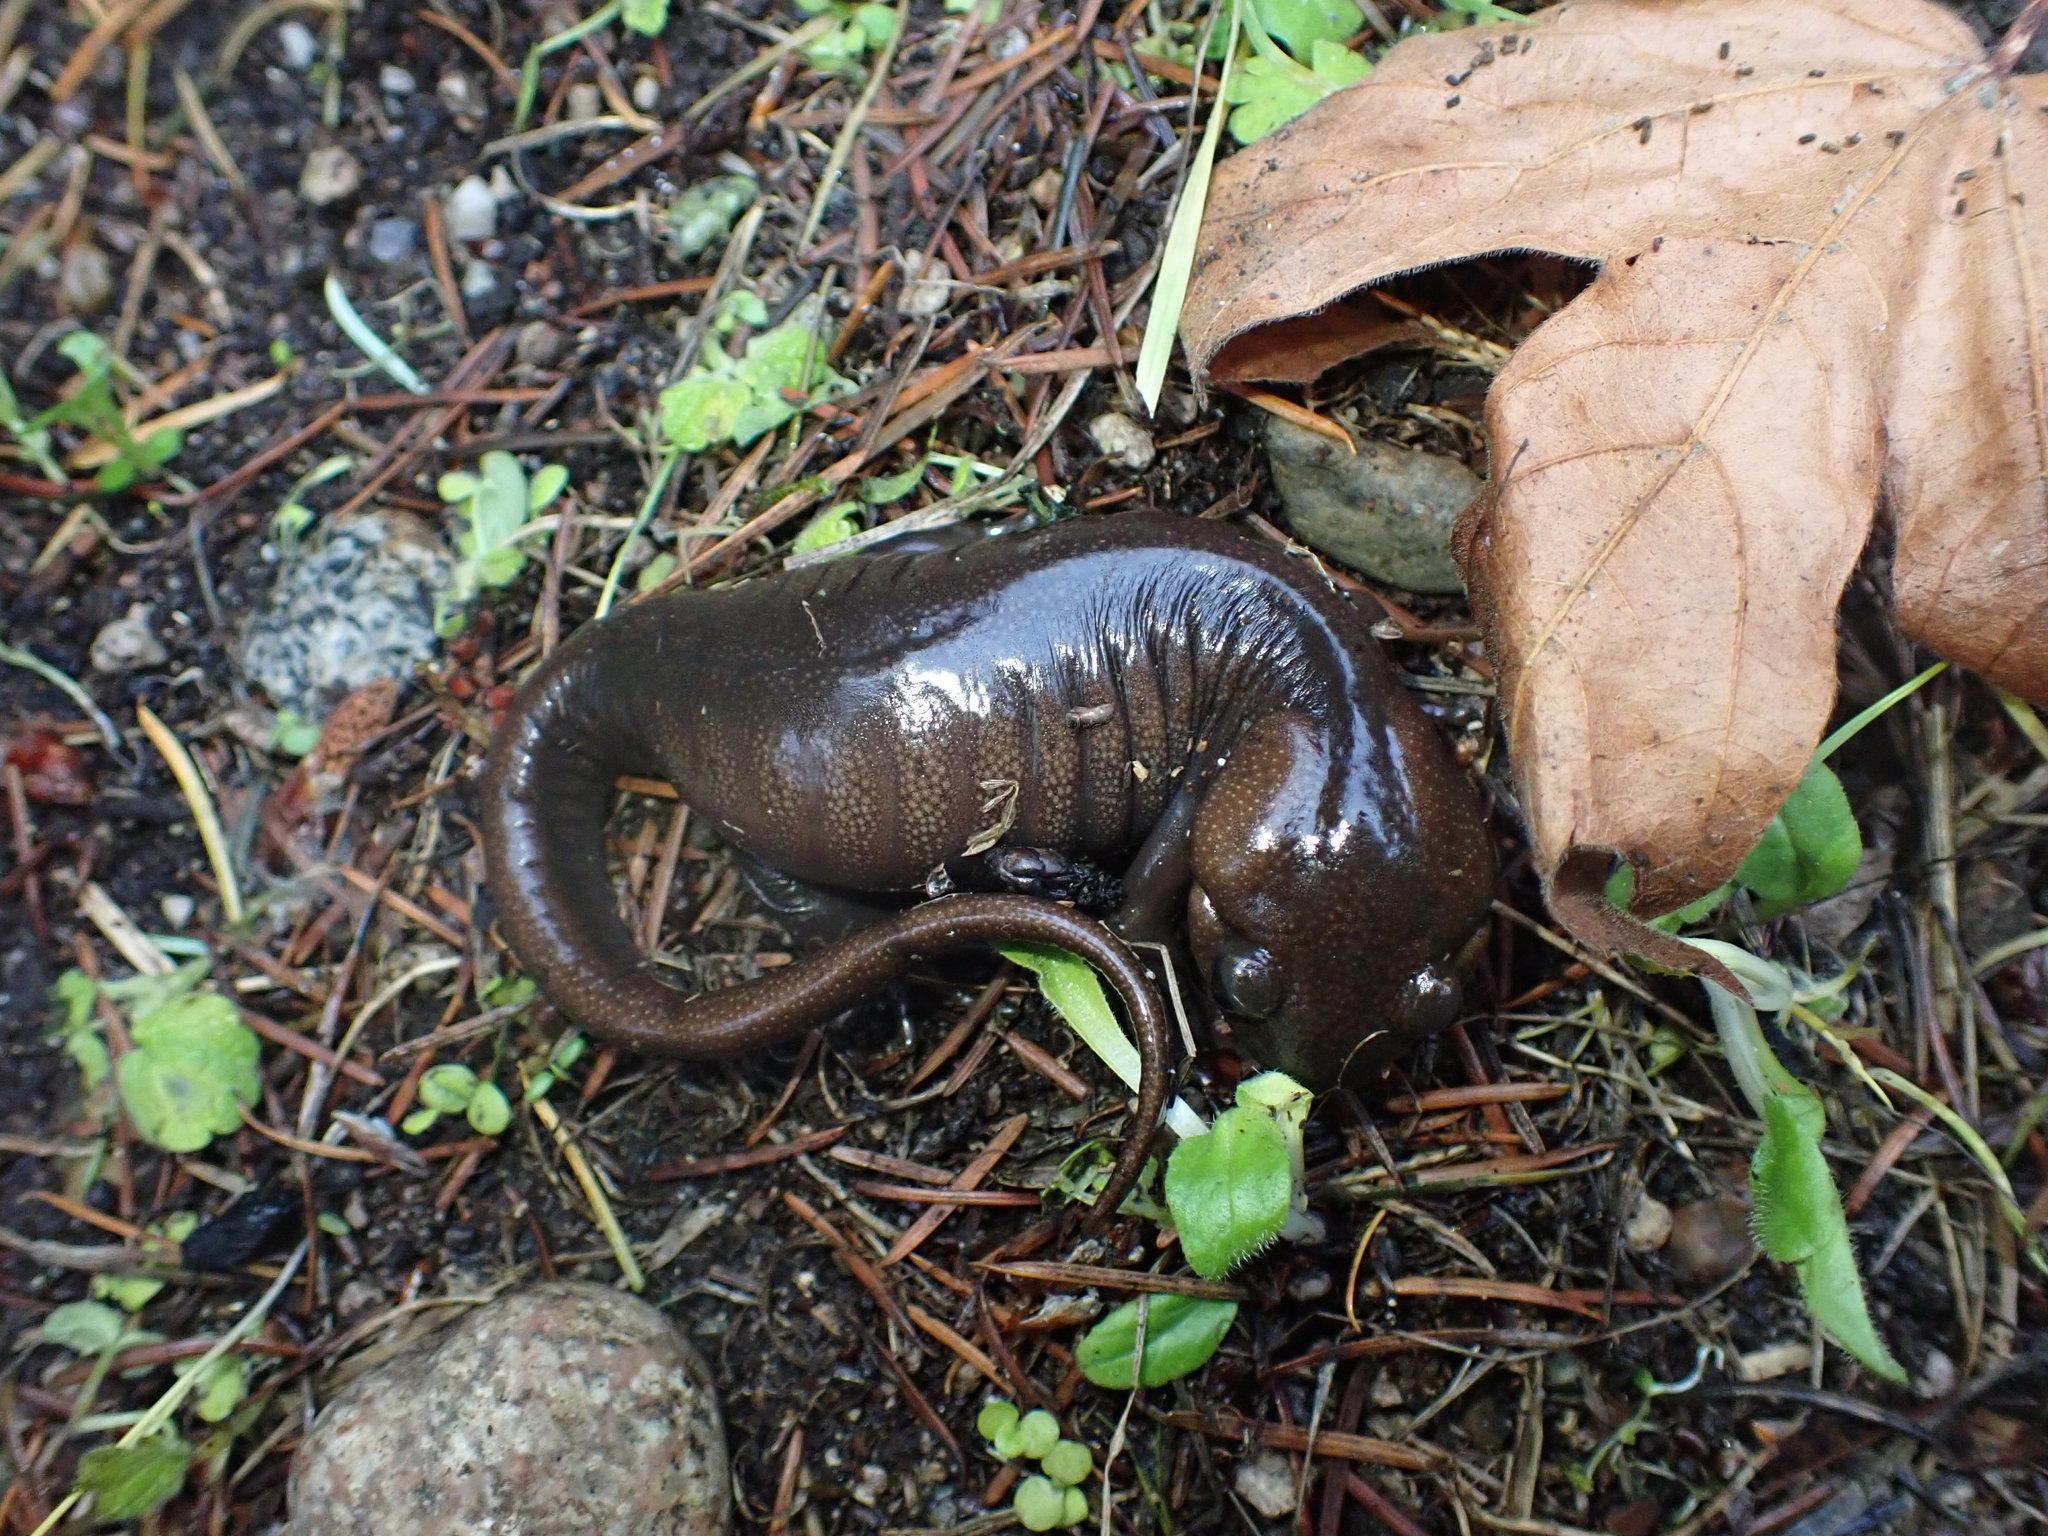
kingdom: Animalia
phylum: Chordata
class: Amphibia
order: Caudata
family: Ambystomatidae
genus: Ambystoma
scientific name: Ambystoma gracile
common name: Northwestern salamander
